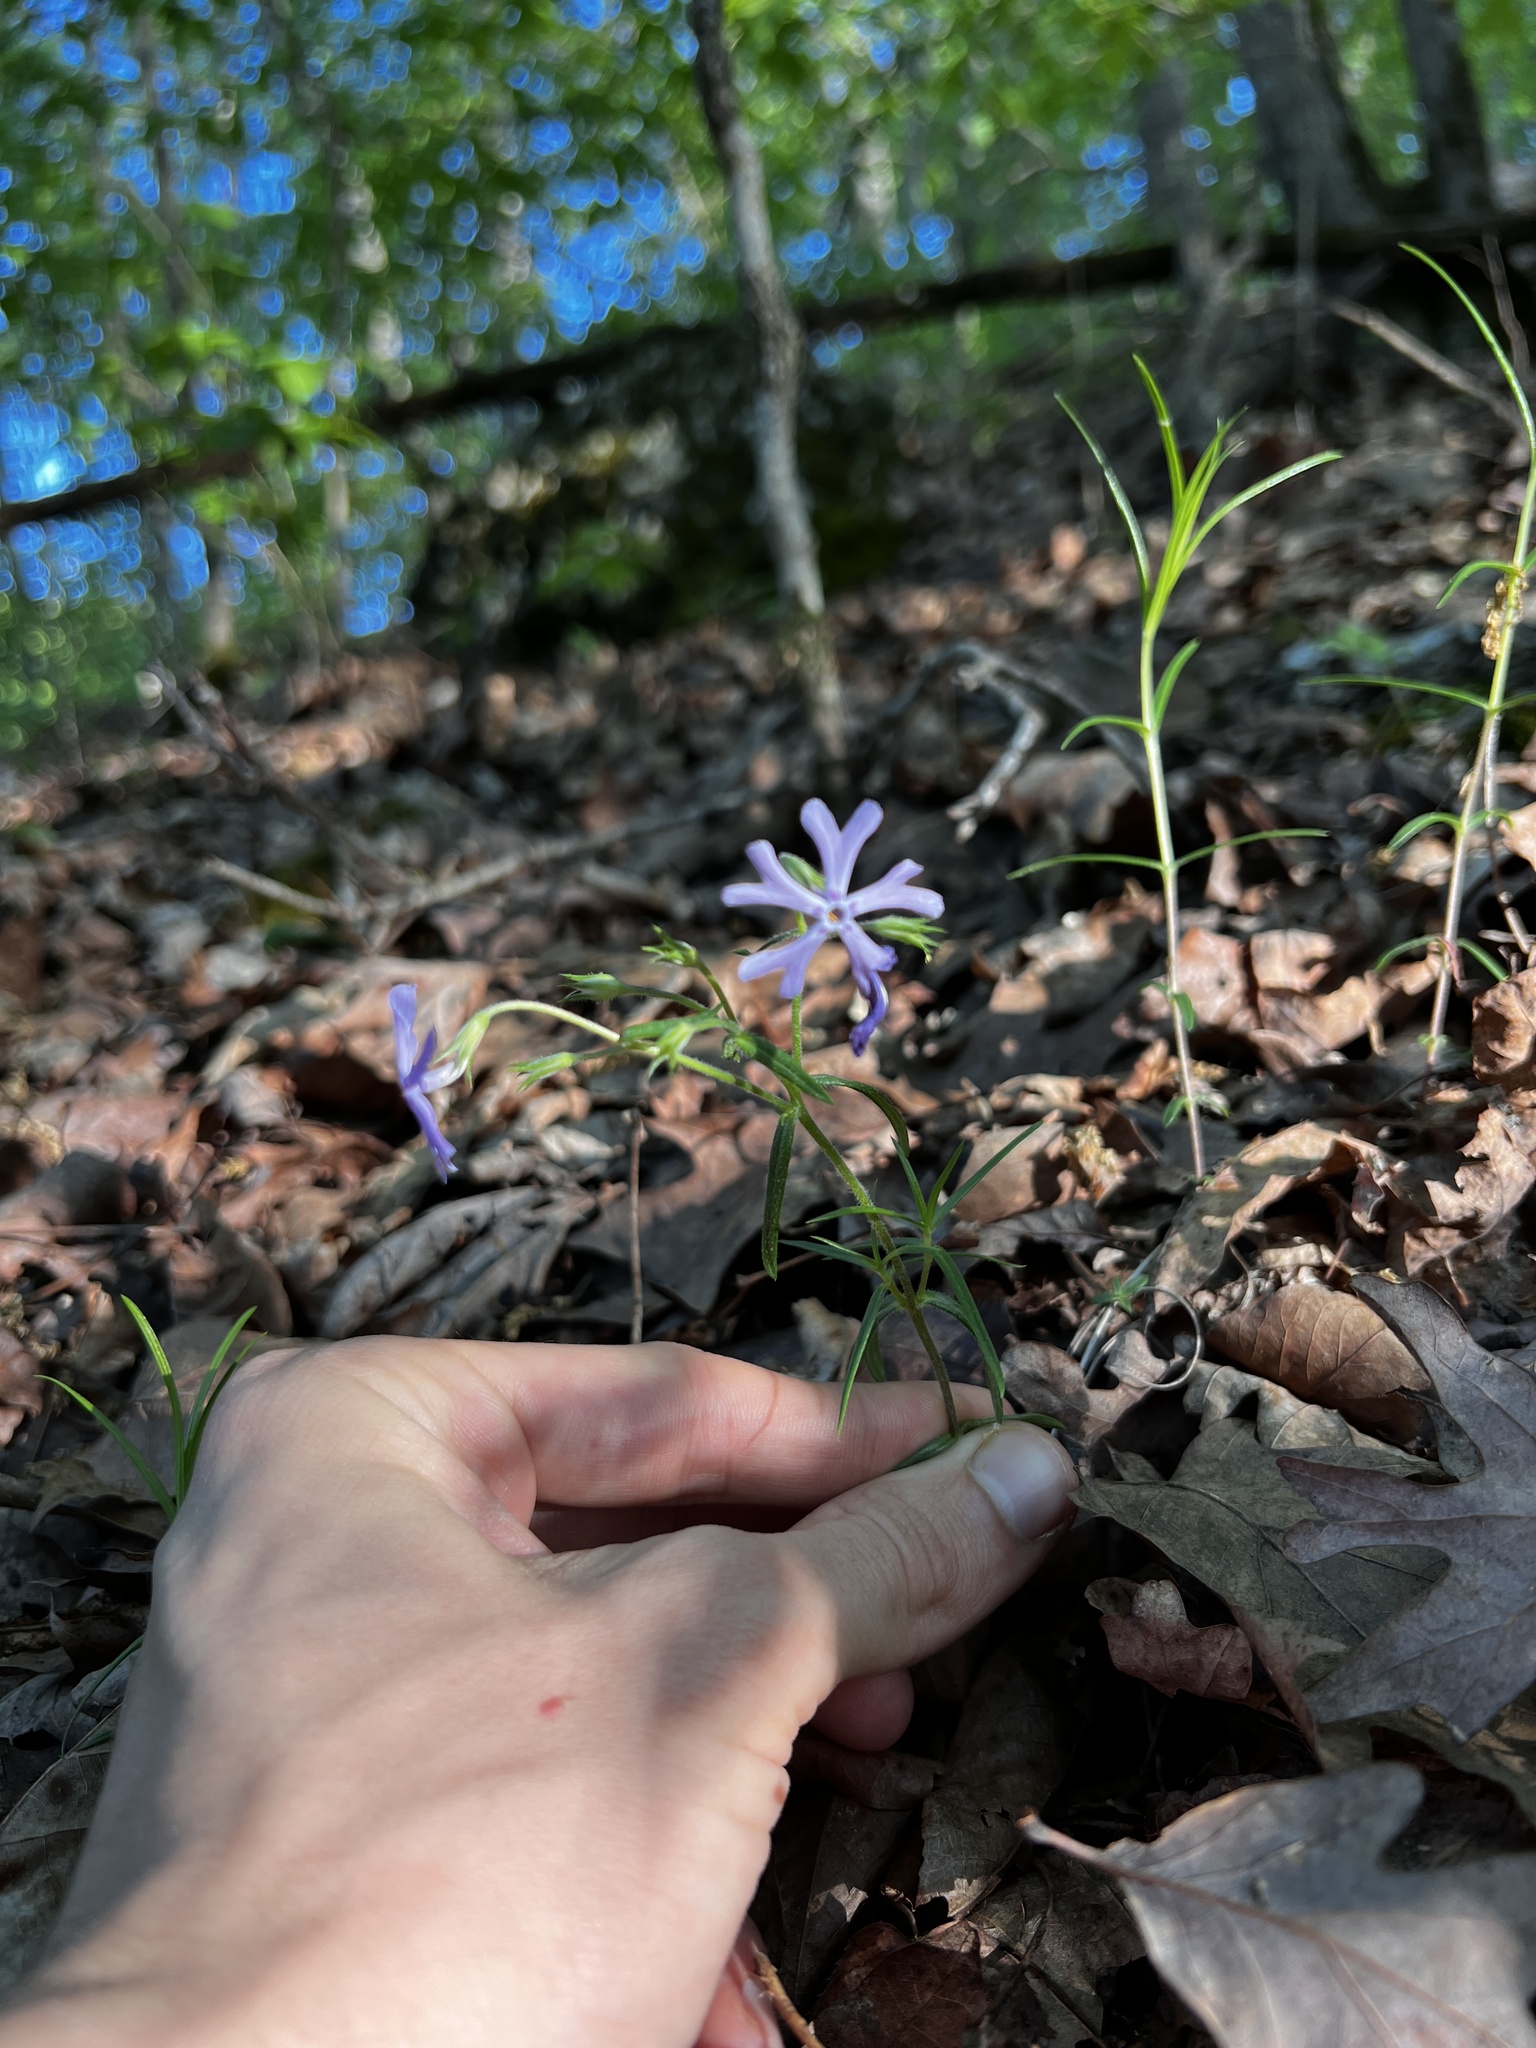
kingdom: Plantae
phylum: Tracheophyta
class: Magnoliopsida
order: Ericales
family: Polemoniaceae
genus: Phlox
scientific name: Phlox bifida
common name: Sand phlox
